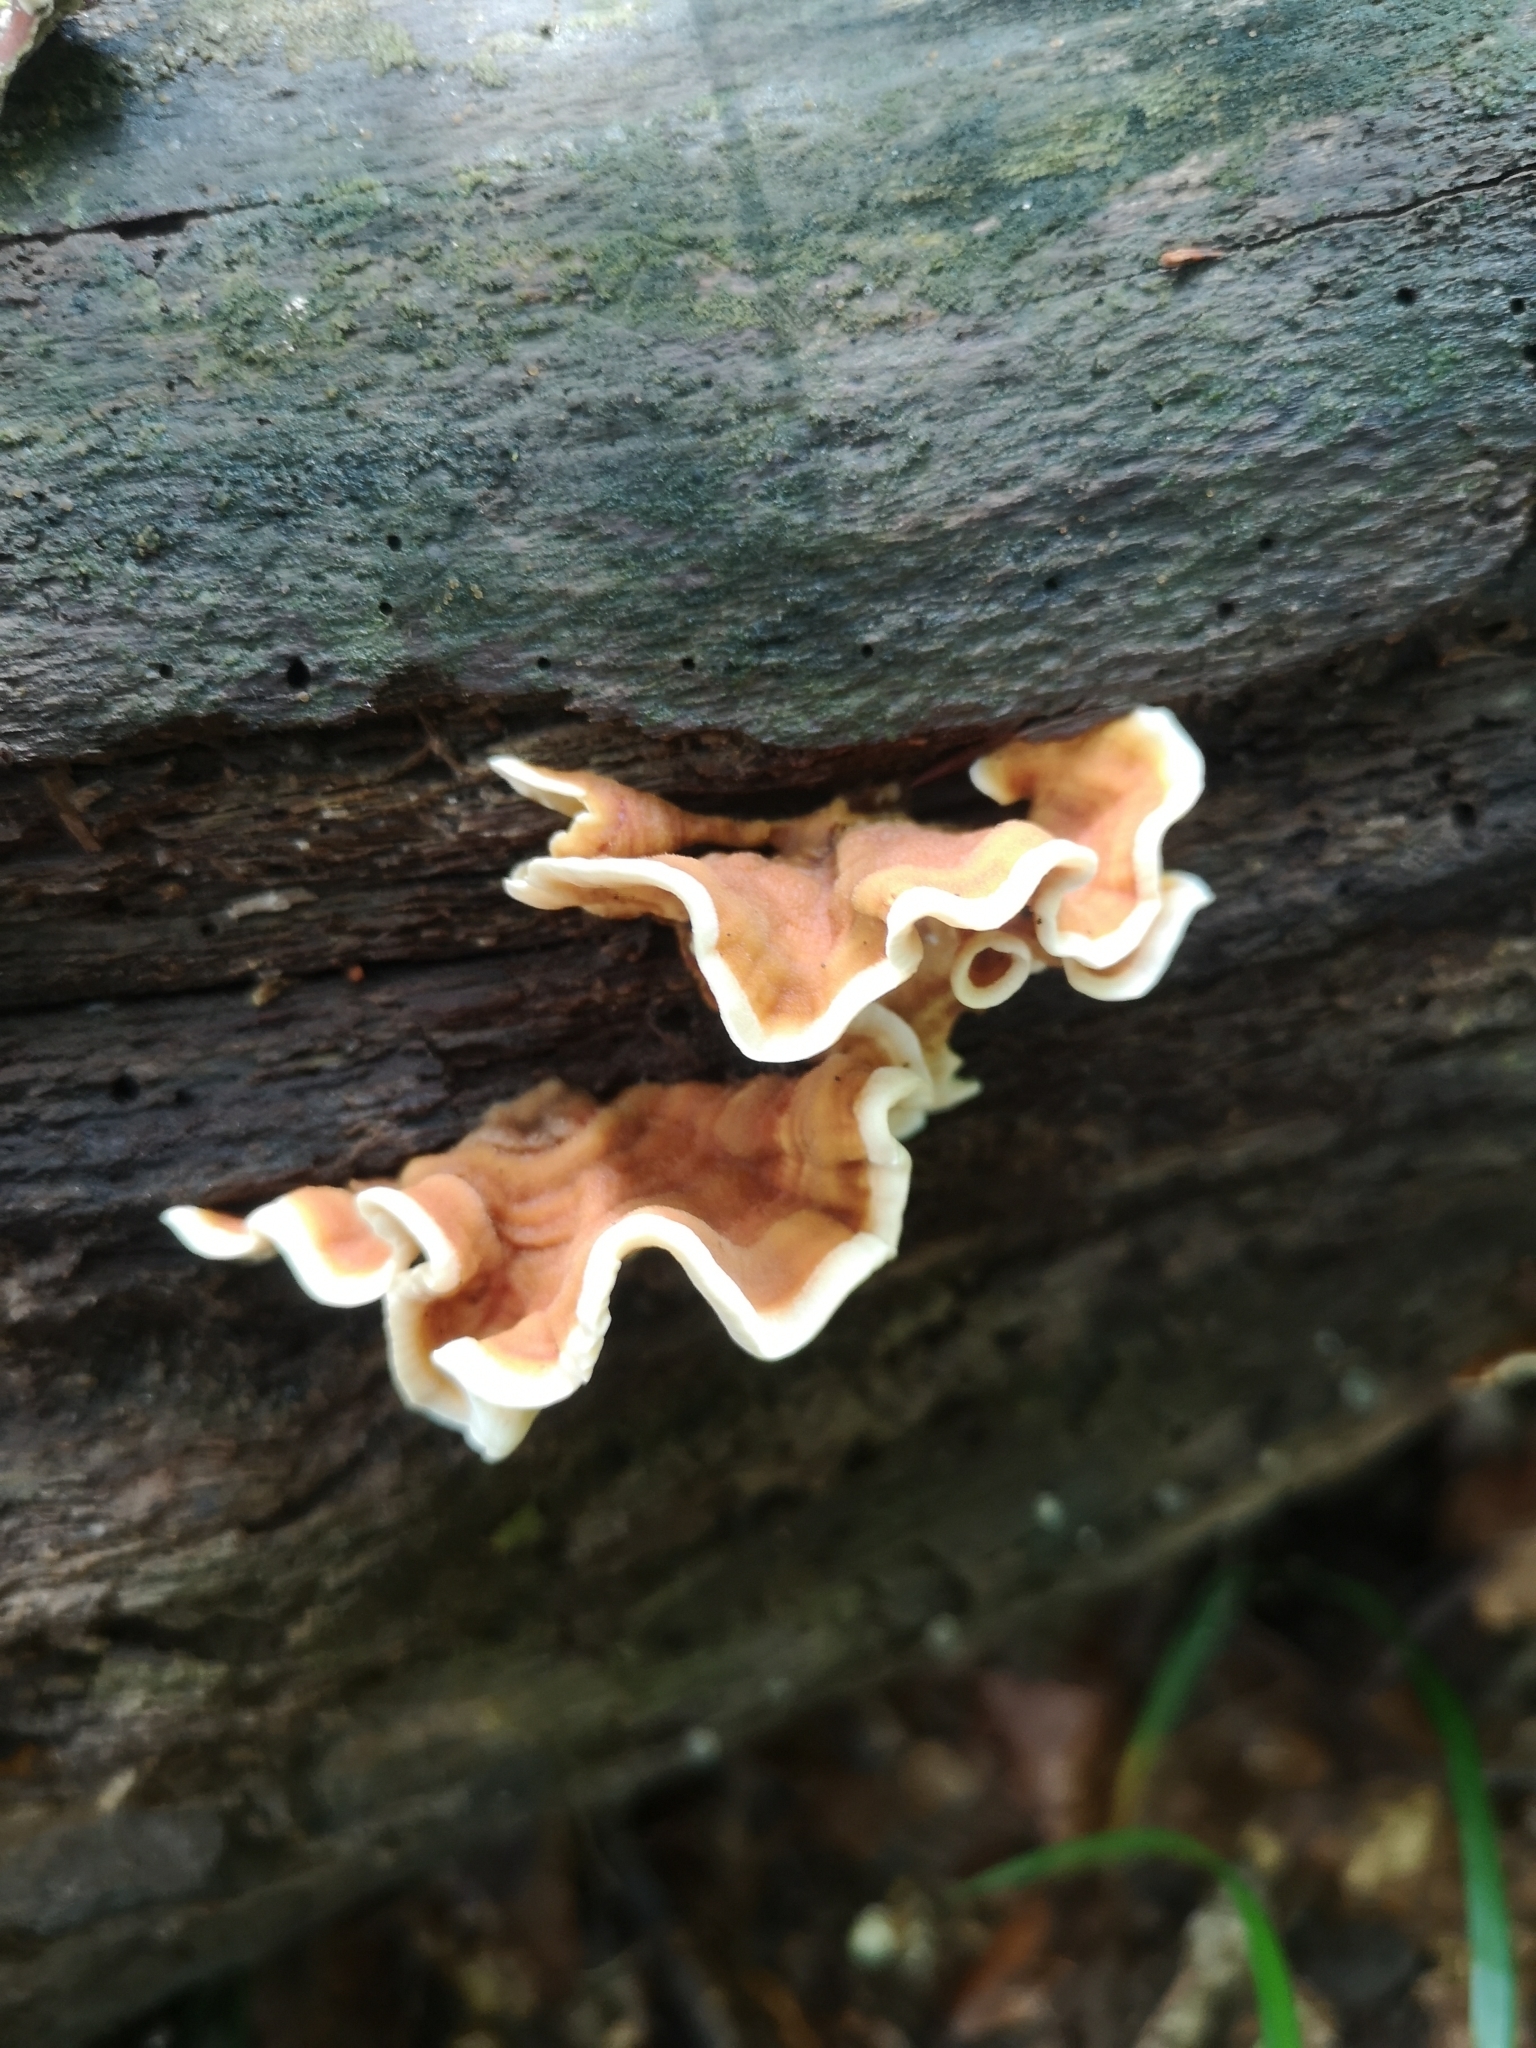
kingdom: Fungi
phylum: Basidiomycota
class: Agaricomycetes
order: Russulales
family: Stereaceae
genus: Stereum
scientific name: Stereum hirsutum
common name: Hairy curtain crust
